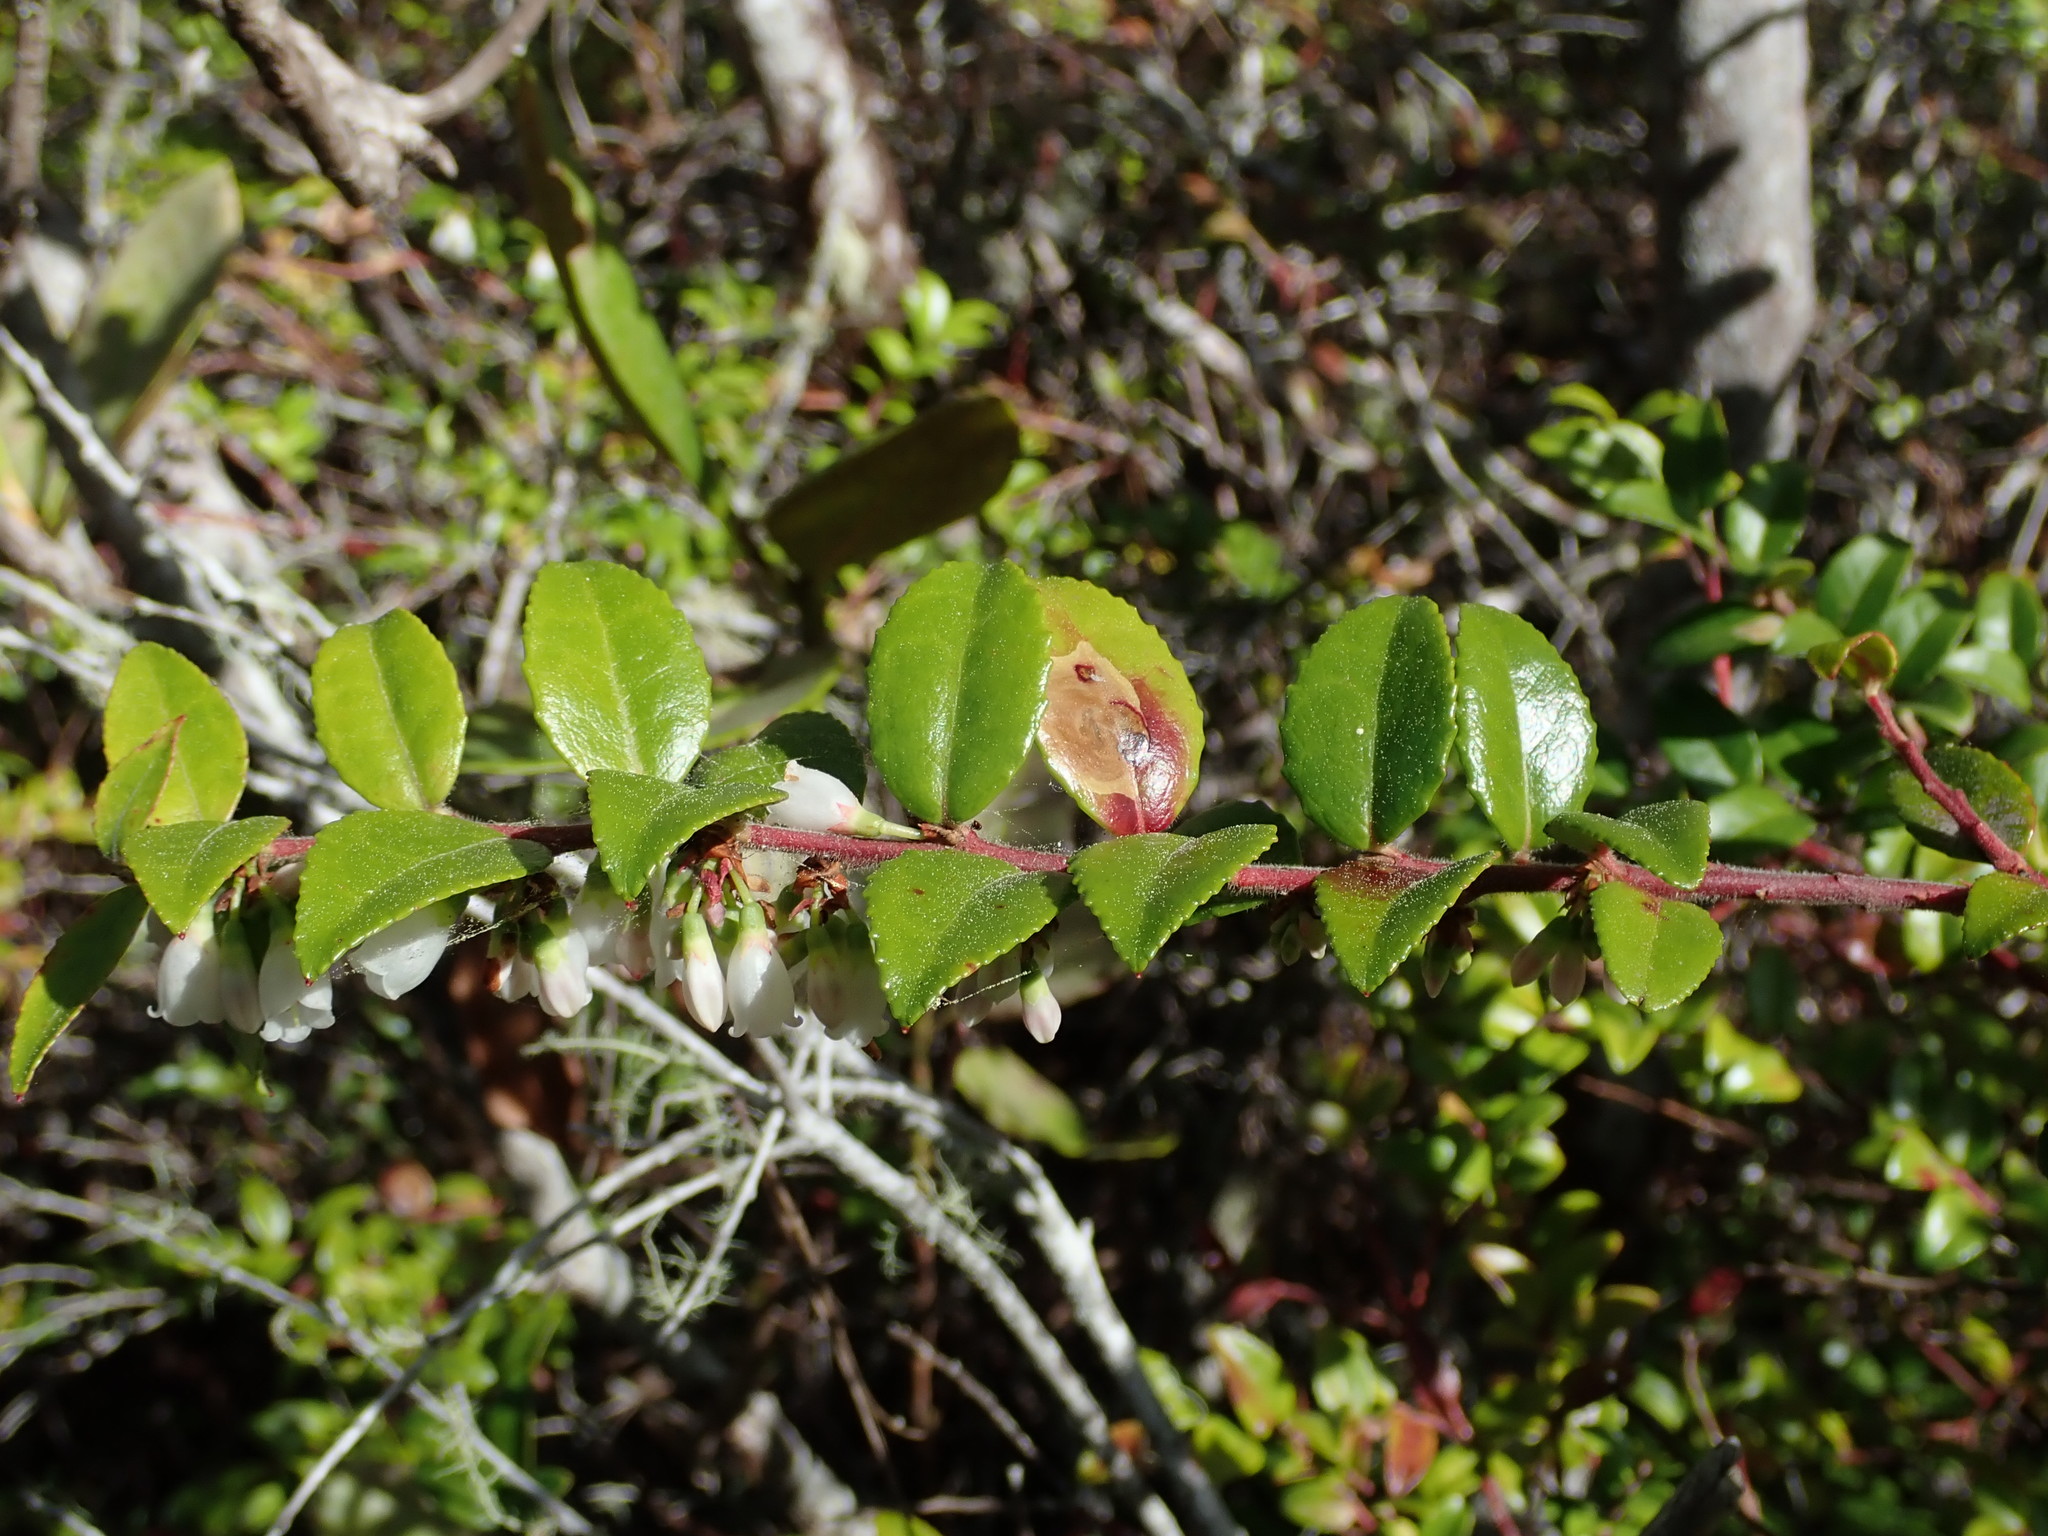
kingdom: Plantae
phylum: Tracheophyta
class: Magnoliopsida
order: Ericales
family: Ericaceae
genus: Vaccinium
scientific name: Vaccinium ovatum
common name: California-huckleberry
